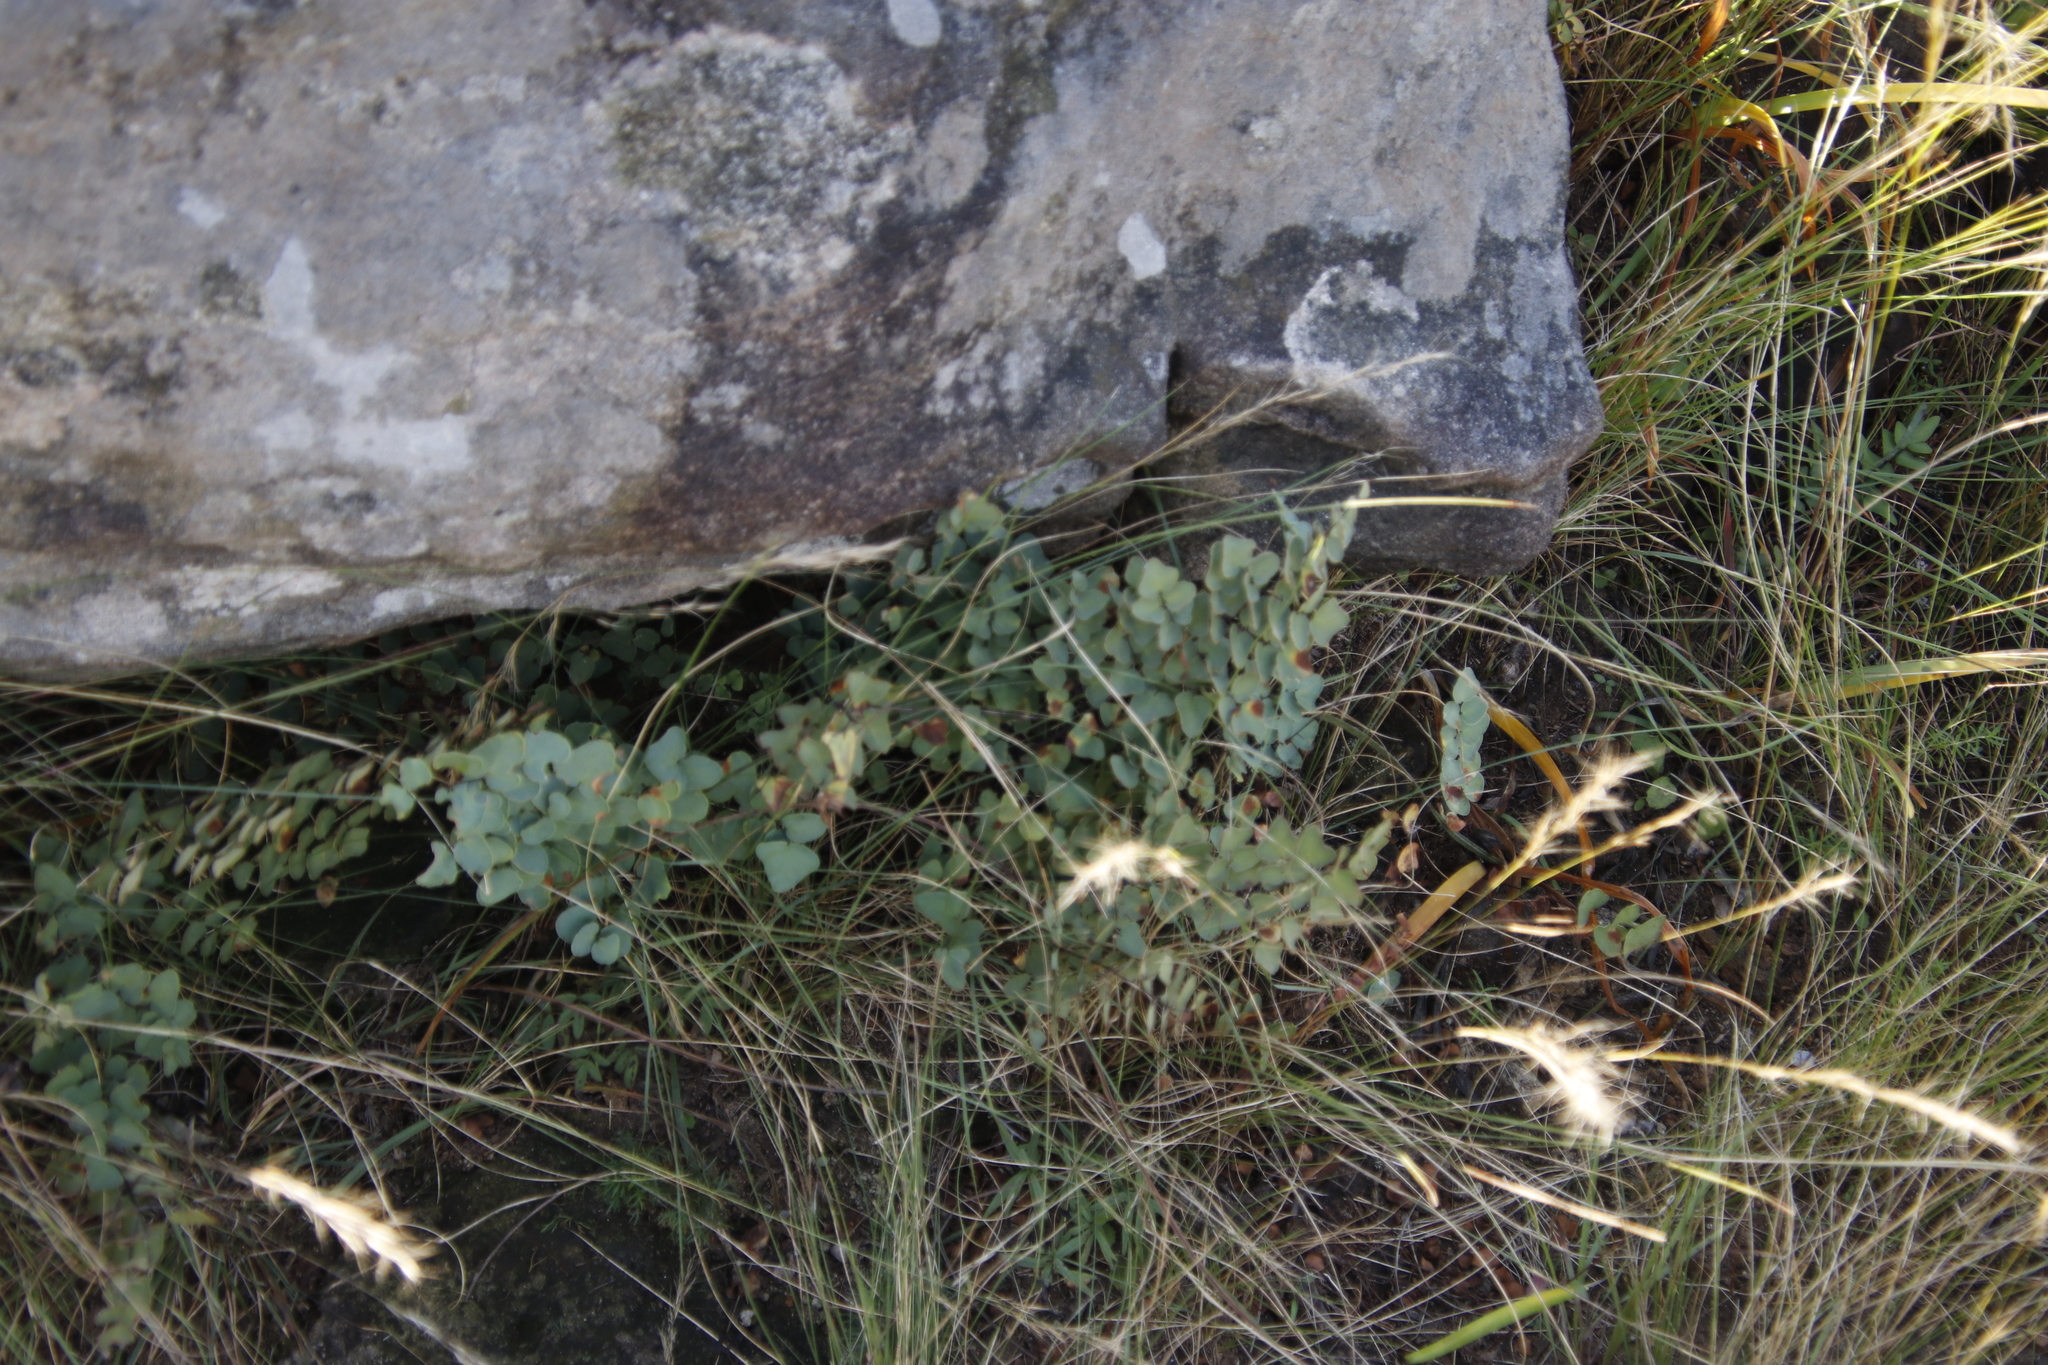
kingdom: Plantae
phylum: Tracheophyta
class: Polypodiopsida
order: Polypodiales
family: Pteridaceae
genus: Pellaea
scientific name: Pellaea calomelanos
